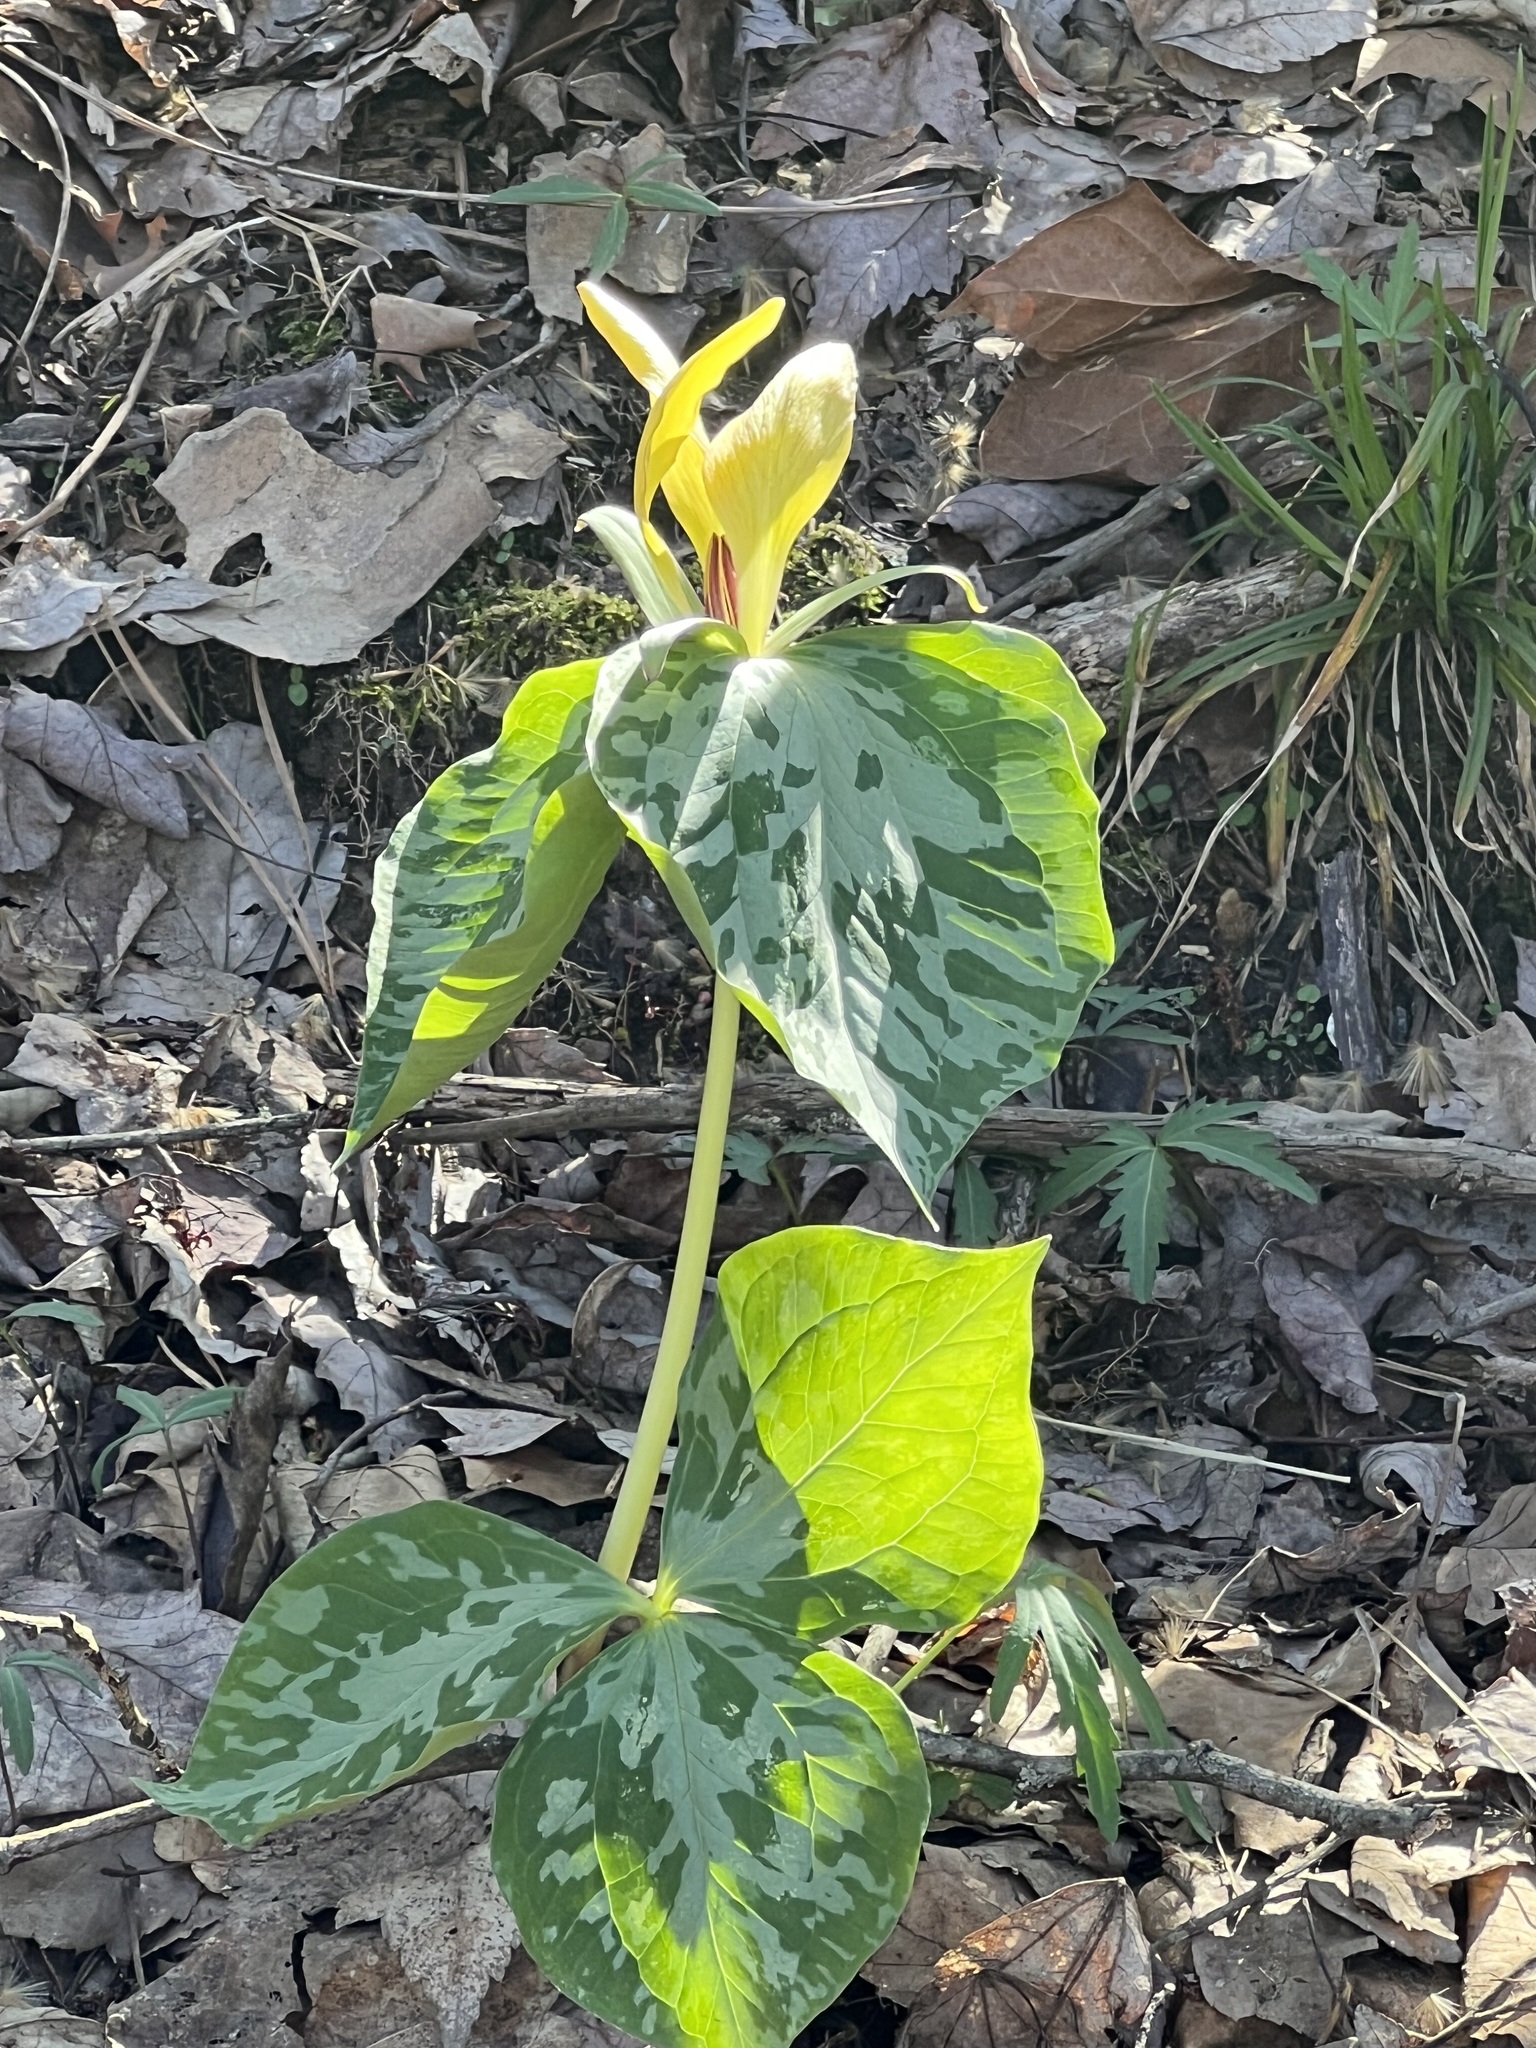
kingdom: Plantae
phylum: Tracheophyta
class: Liliopsida
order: Liliales
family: Melanthiaceae
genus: Trillium
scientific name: Trillium cuneatum
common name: Cuneate trillium
